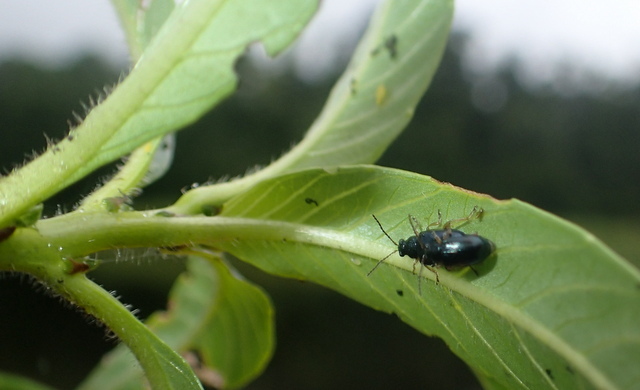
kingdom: Animalia
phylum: Arthropoda
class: Insecta
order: Coleoptera
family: Chrysomelidae
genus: Lysathia
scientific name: Lysathia ludoviciana
